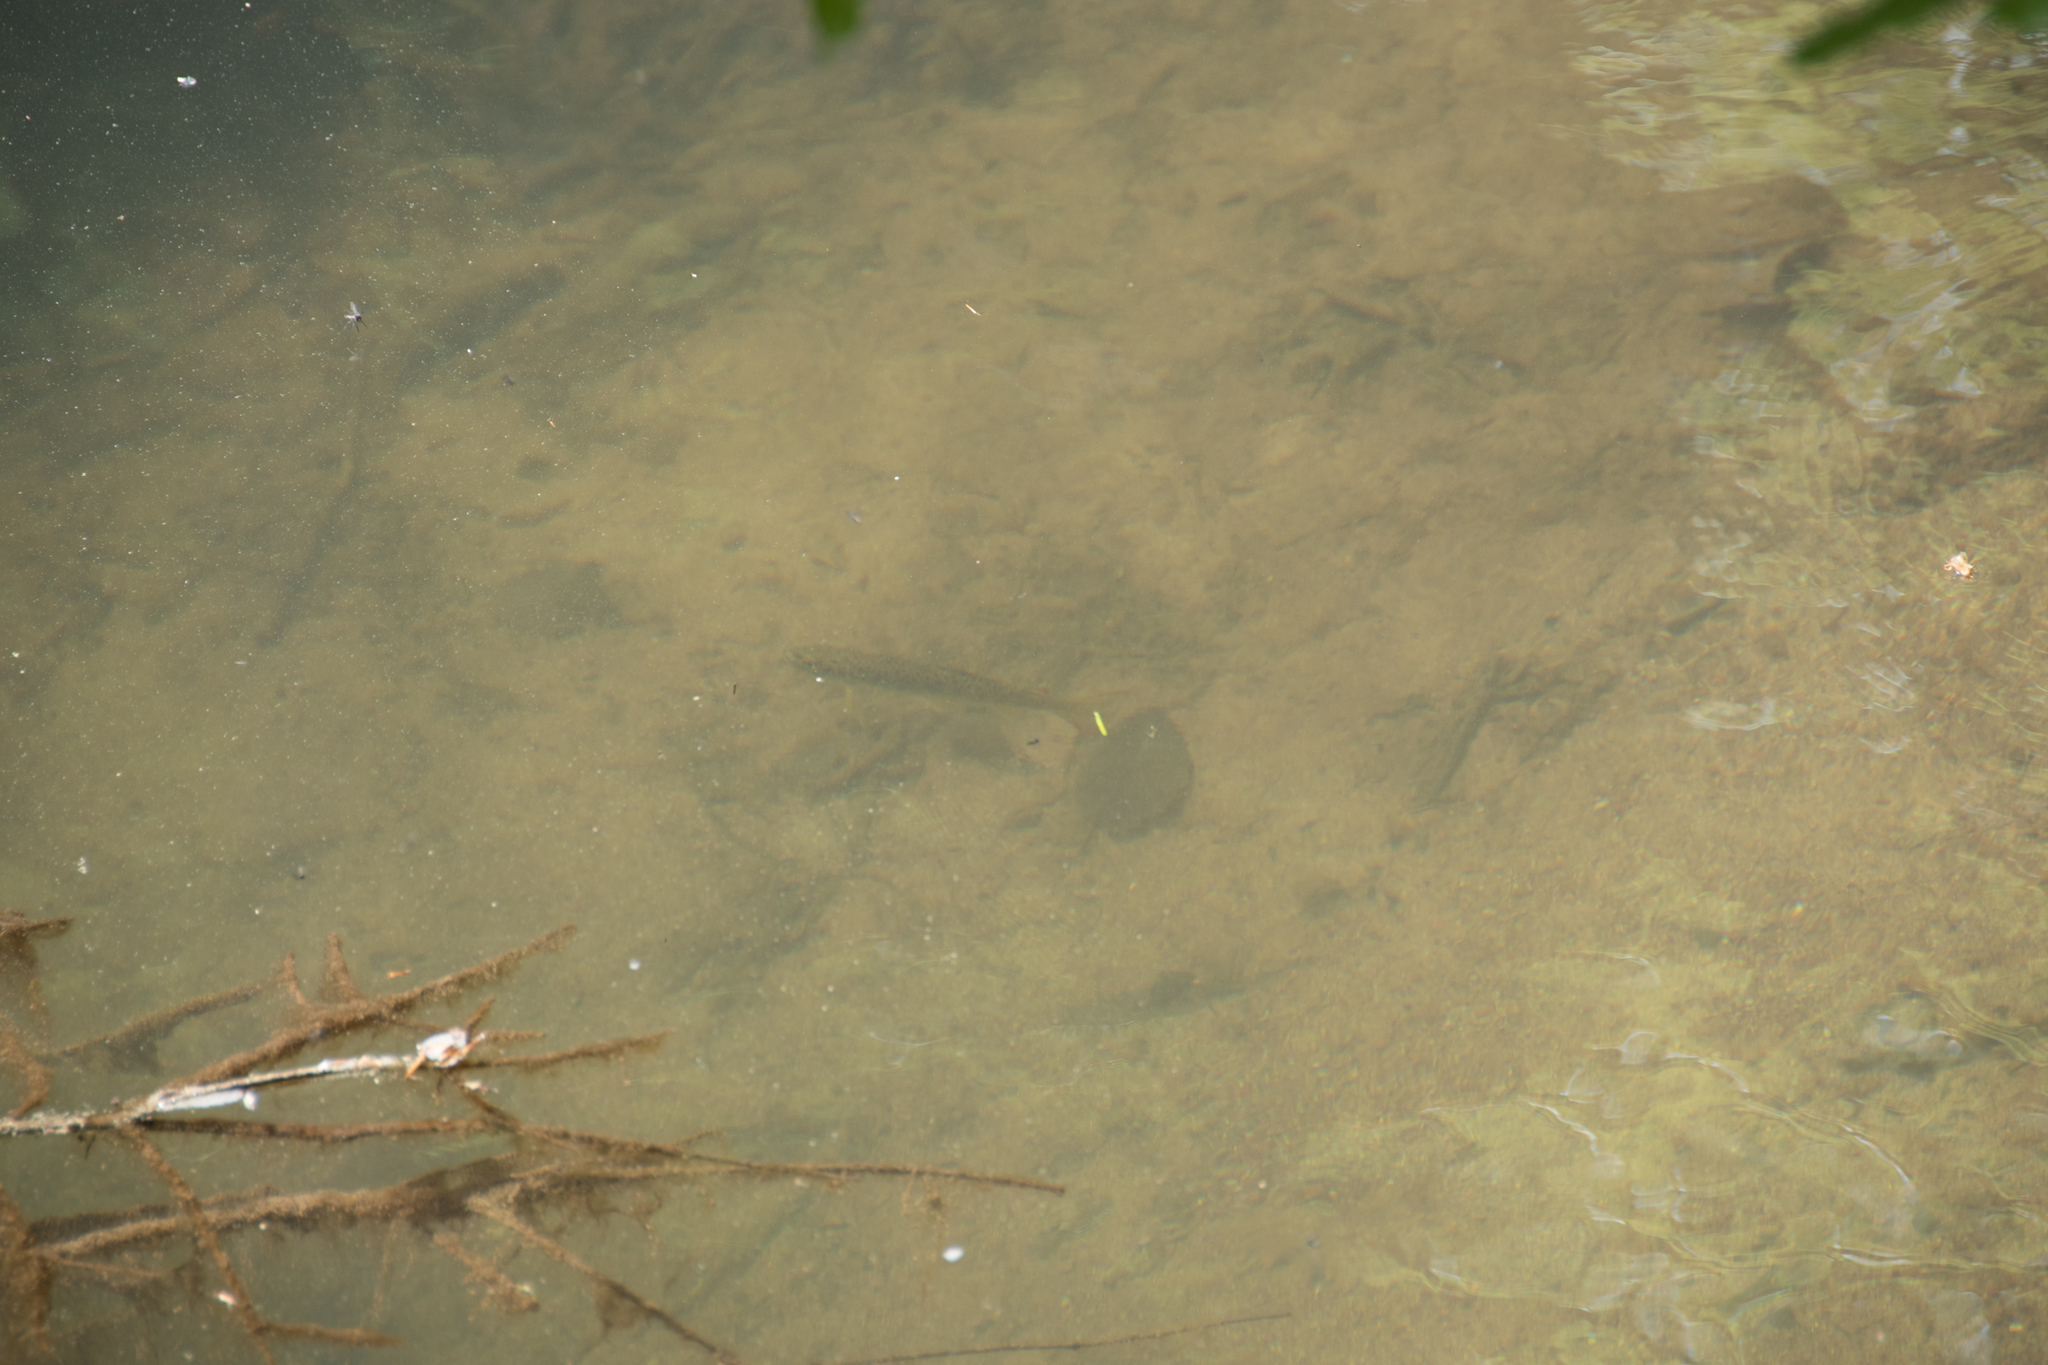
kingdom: Animalia
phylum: Chordata
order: Salmoniformes
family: Salmonidae
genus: Salmo
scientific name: Salmo trutta
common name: Brown trout
